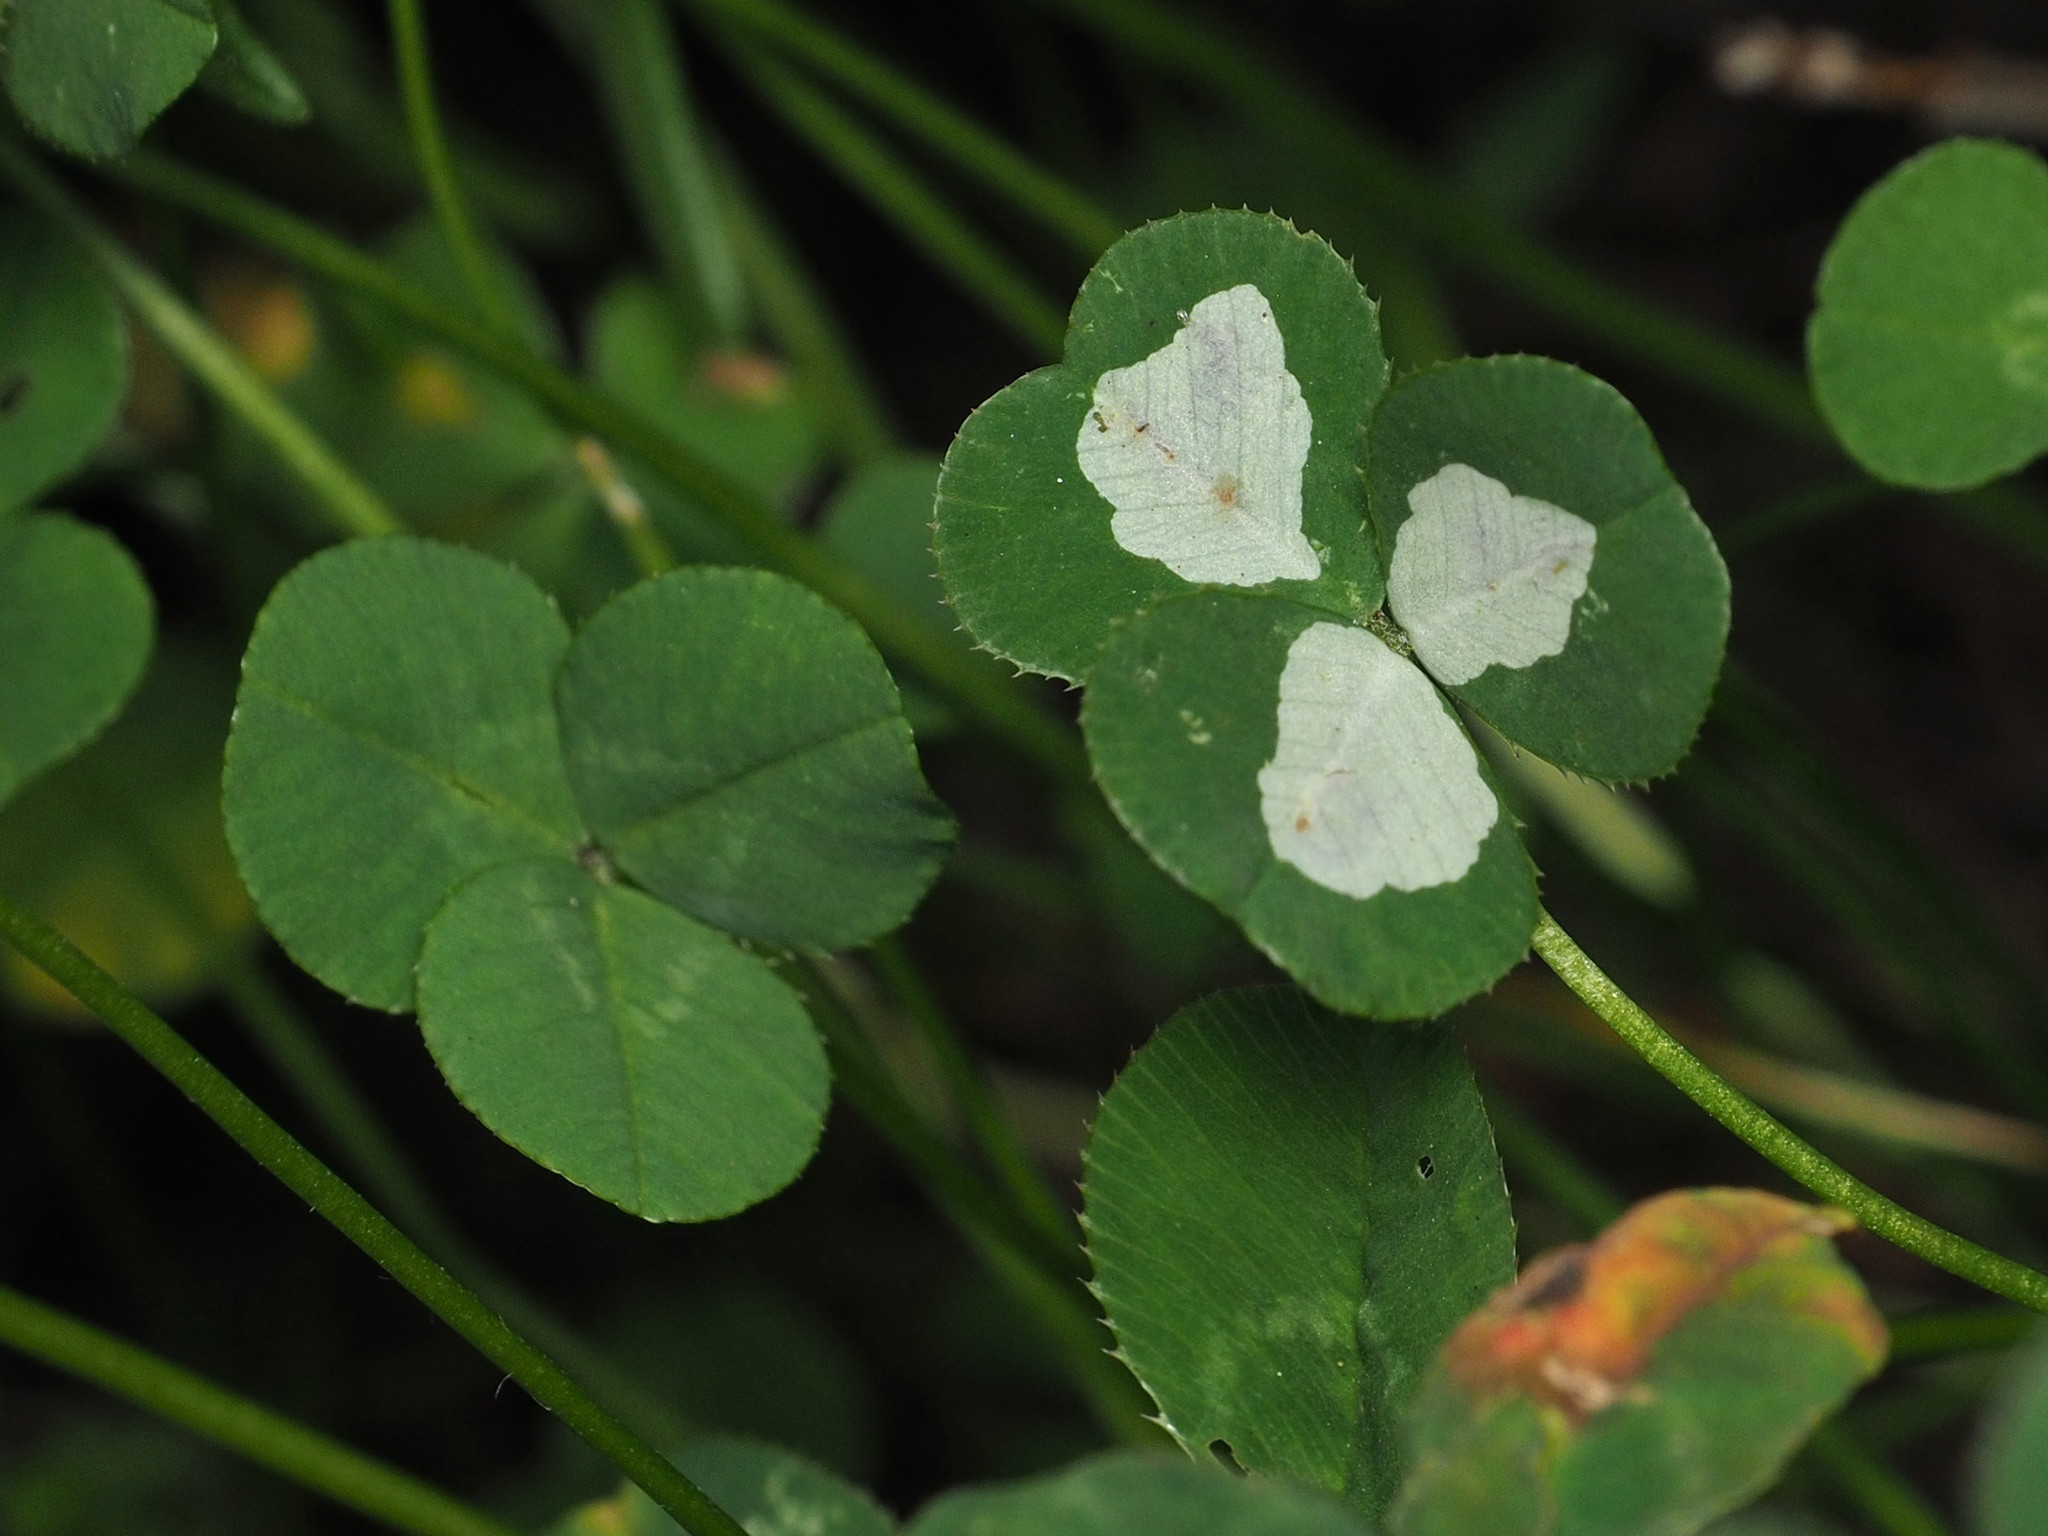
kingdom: Animalia
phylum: Arthropoda
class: Insecta
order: Lepidoptera
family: Gracillariidae
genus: Porphyrosela
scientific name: Porphyrosela minuta
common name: Leaf miner moth
